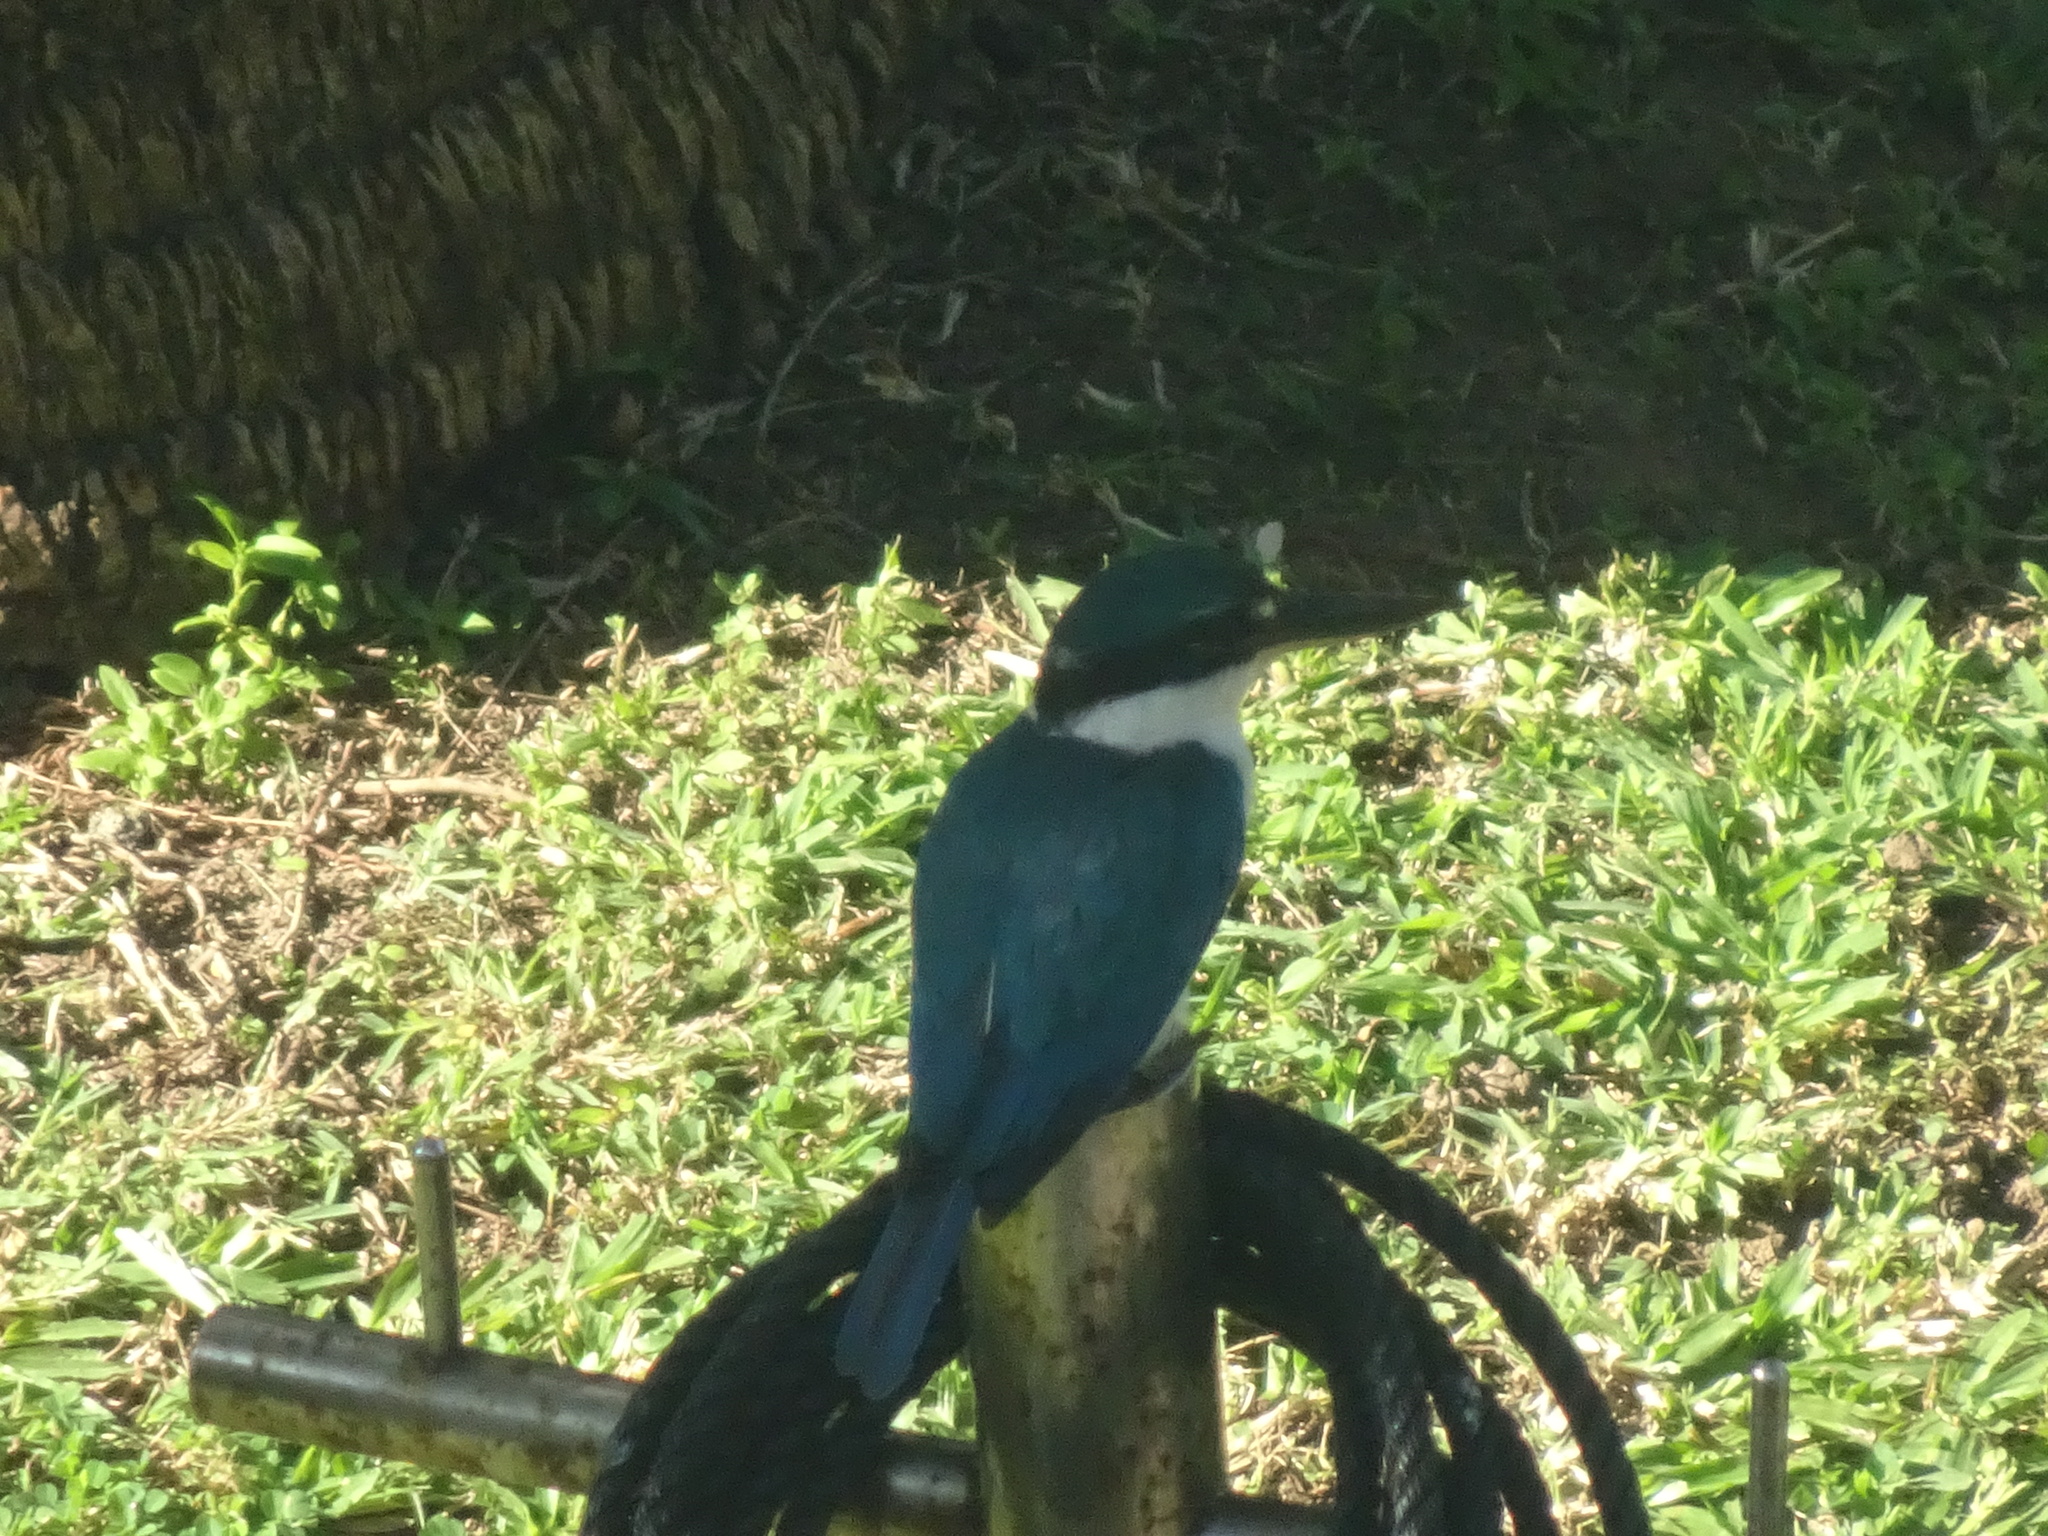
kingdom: Animalia
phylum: Chordata
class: Aves
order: Coraciiformes
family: Alcedinidae
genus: Todiramphus
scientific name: Todiramphus chloris
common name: Collared kingfisher
